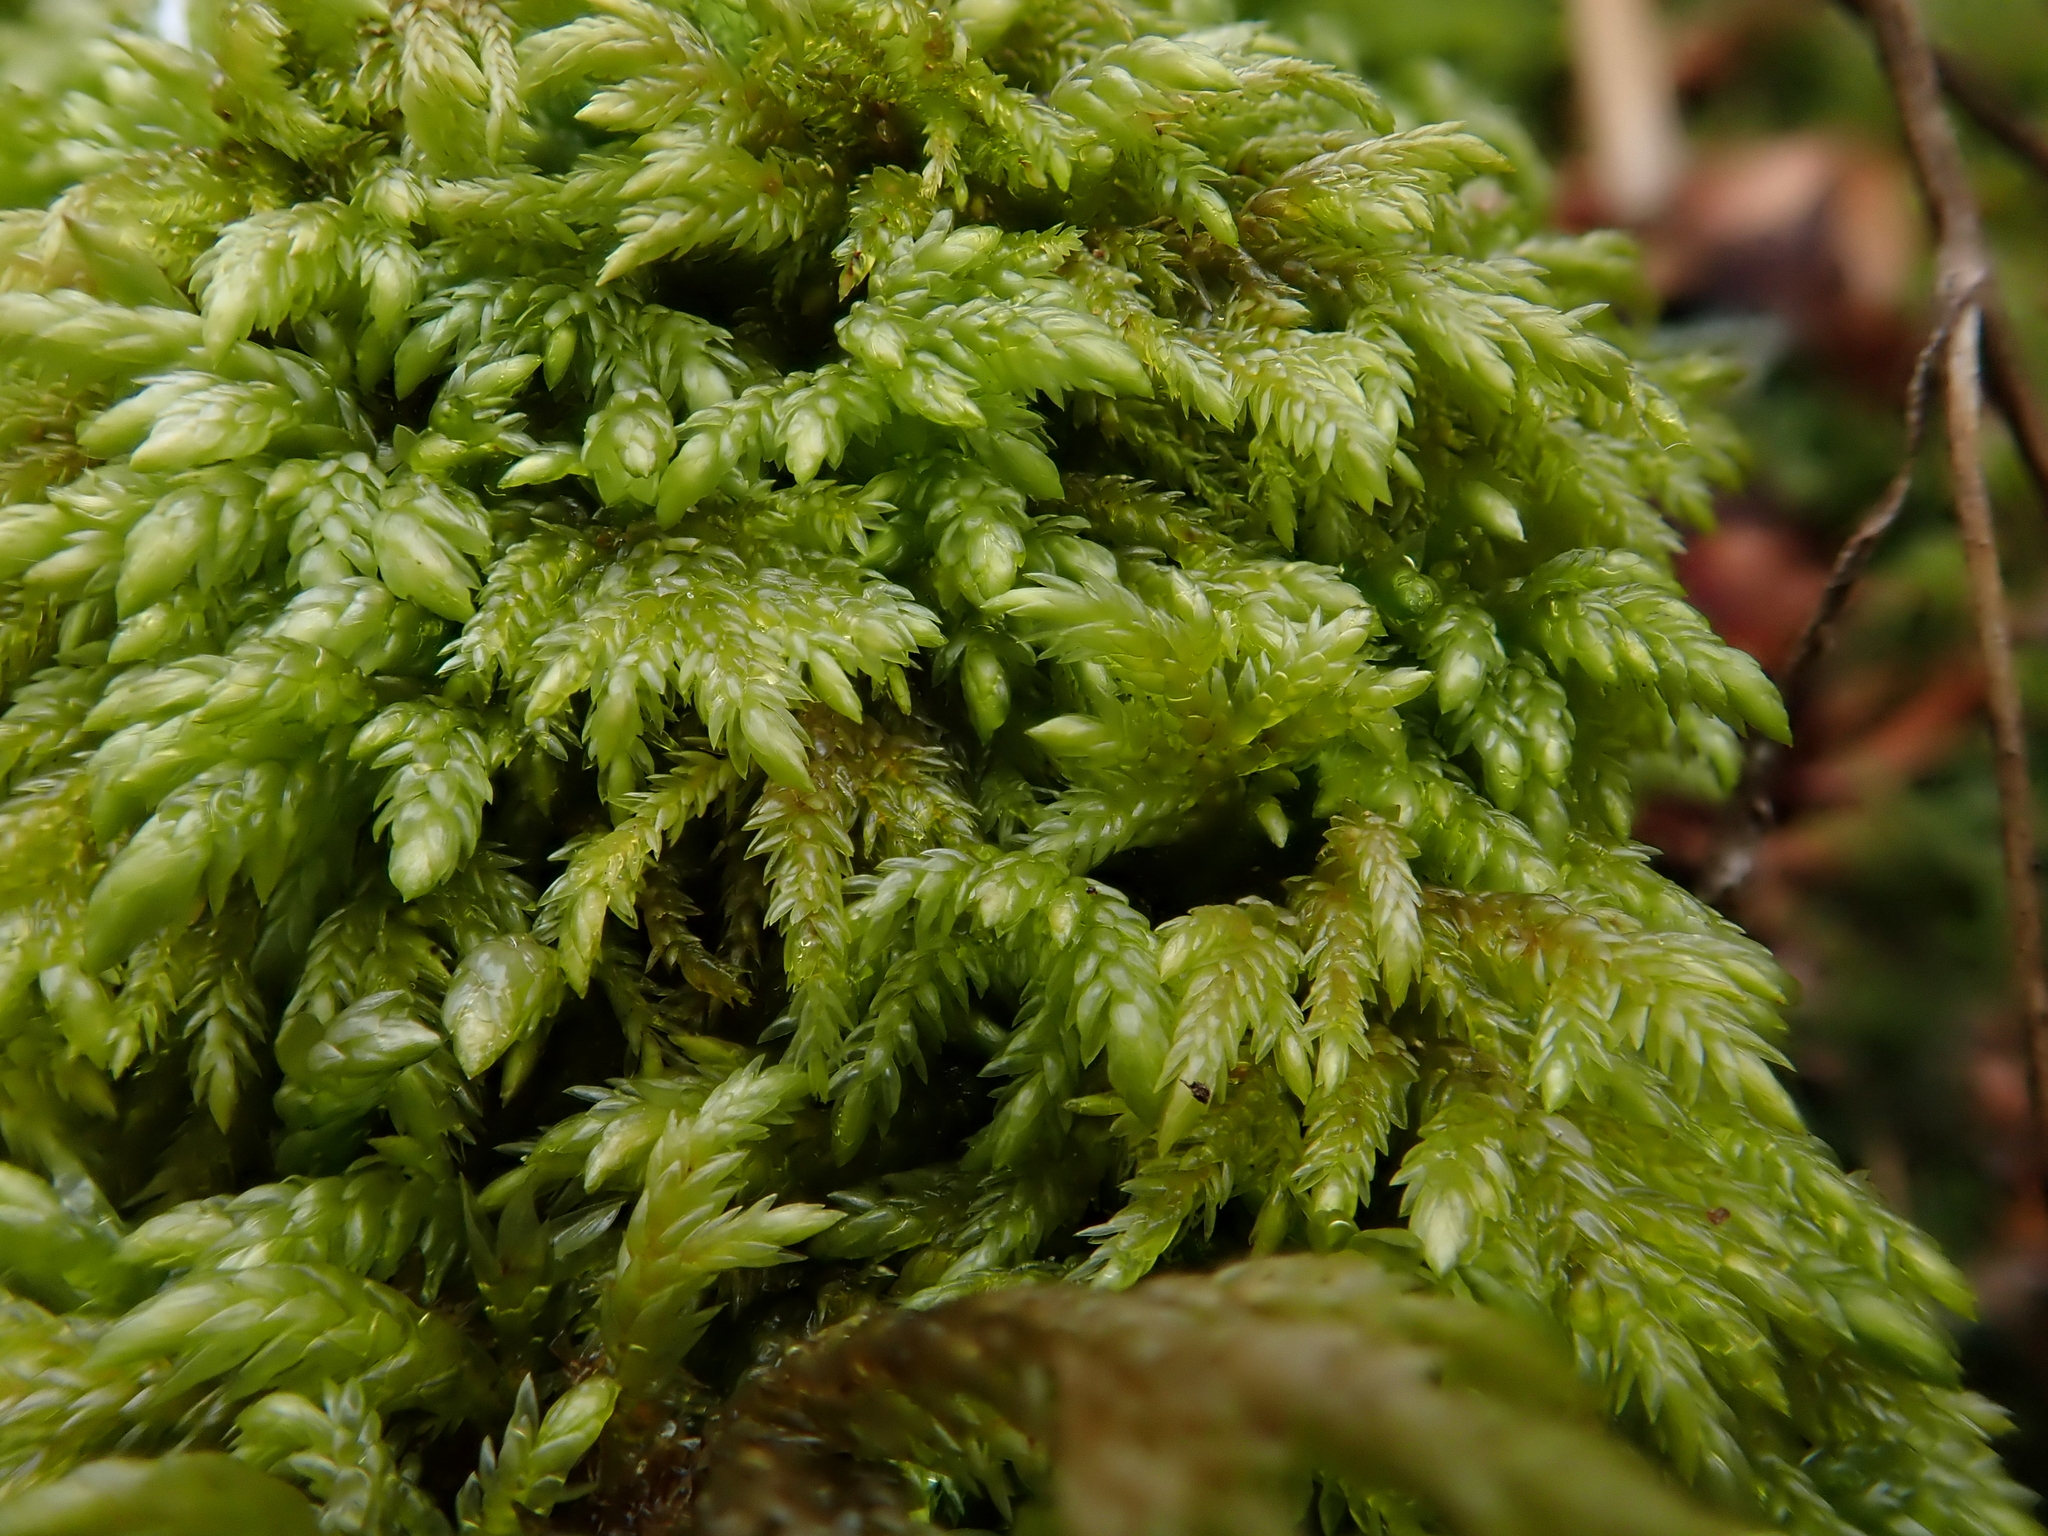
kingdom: Plantae
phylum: Bryophyta
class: Bryopsida
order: Hypnales
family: Lembophyllaceae
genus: Isothecium
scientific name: Isothecium alopecuroides
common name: Larger mouse-tail moss
